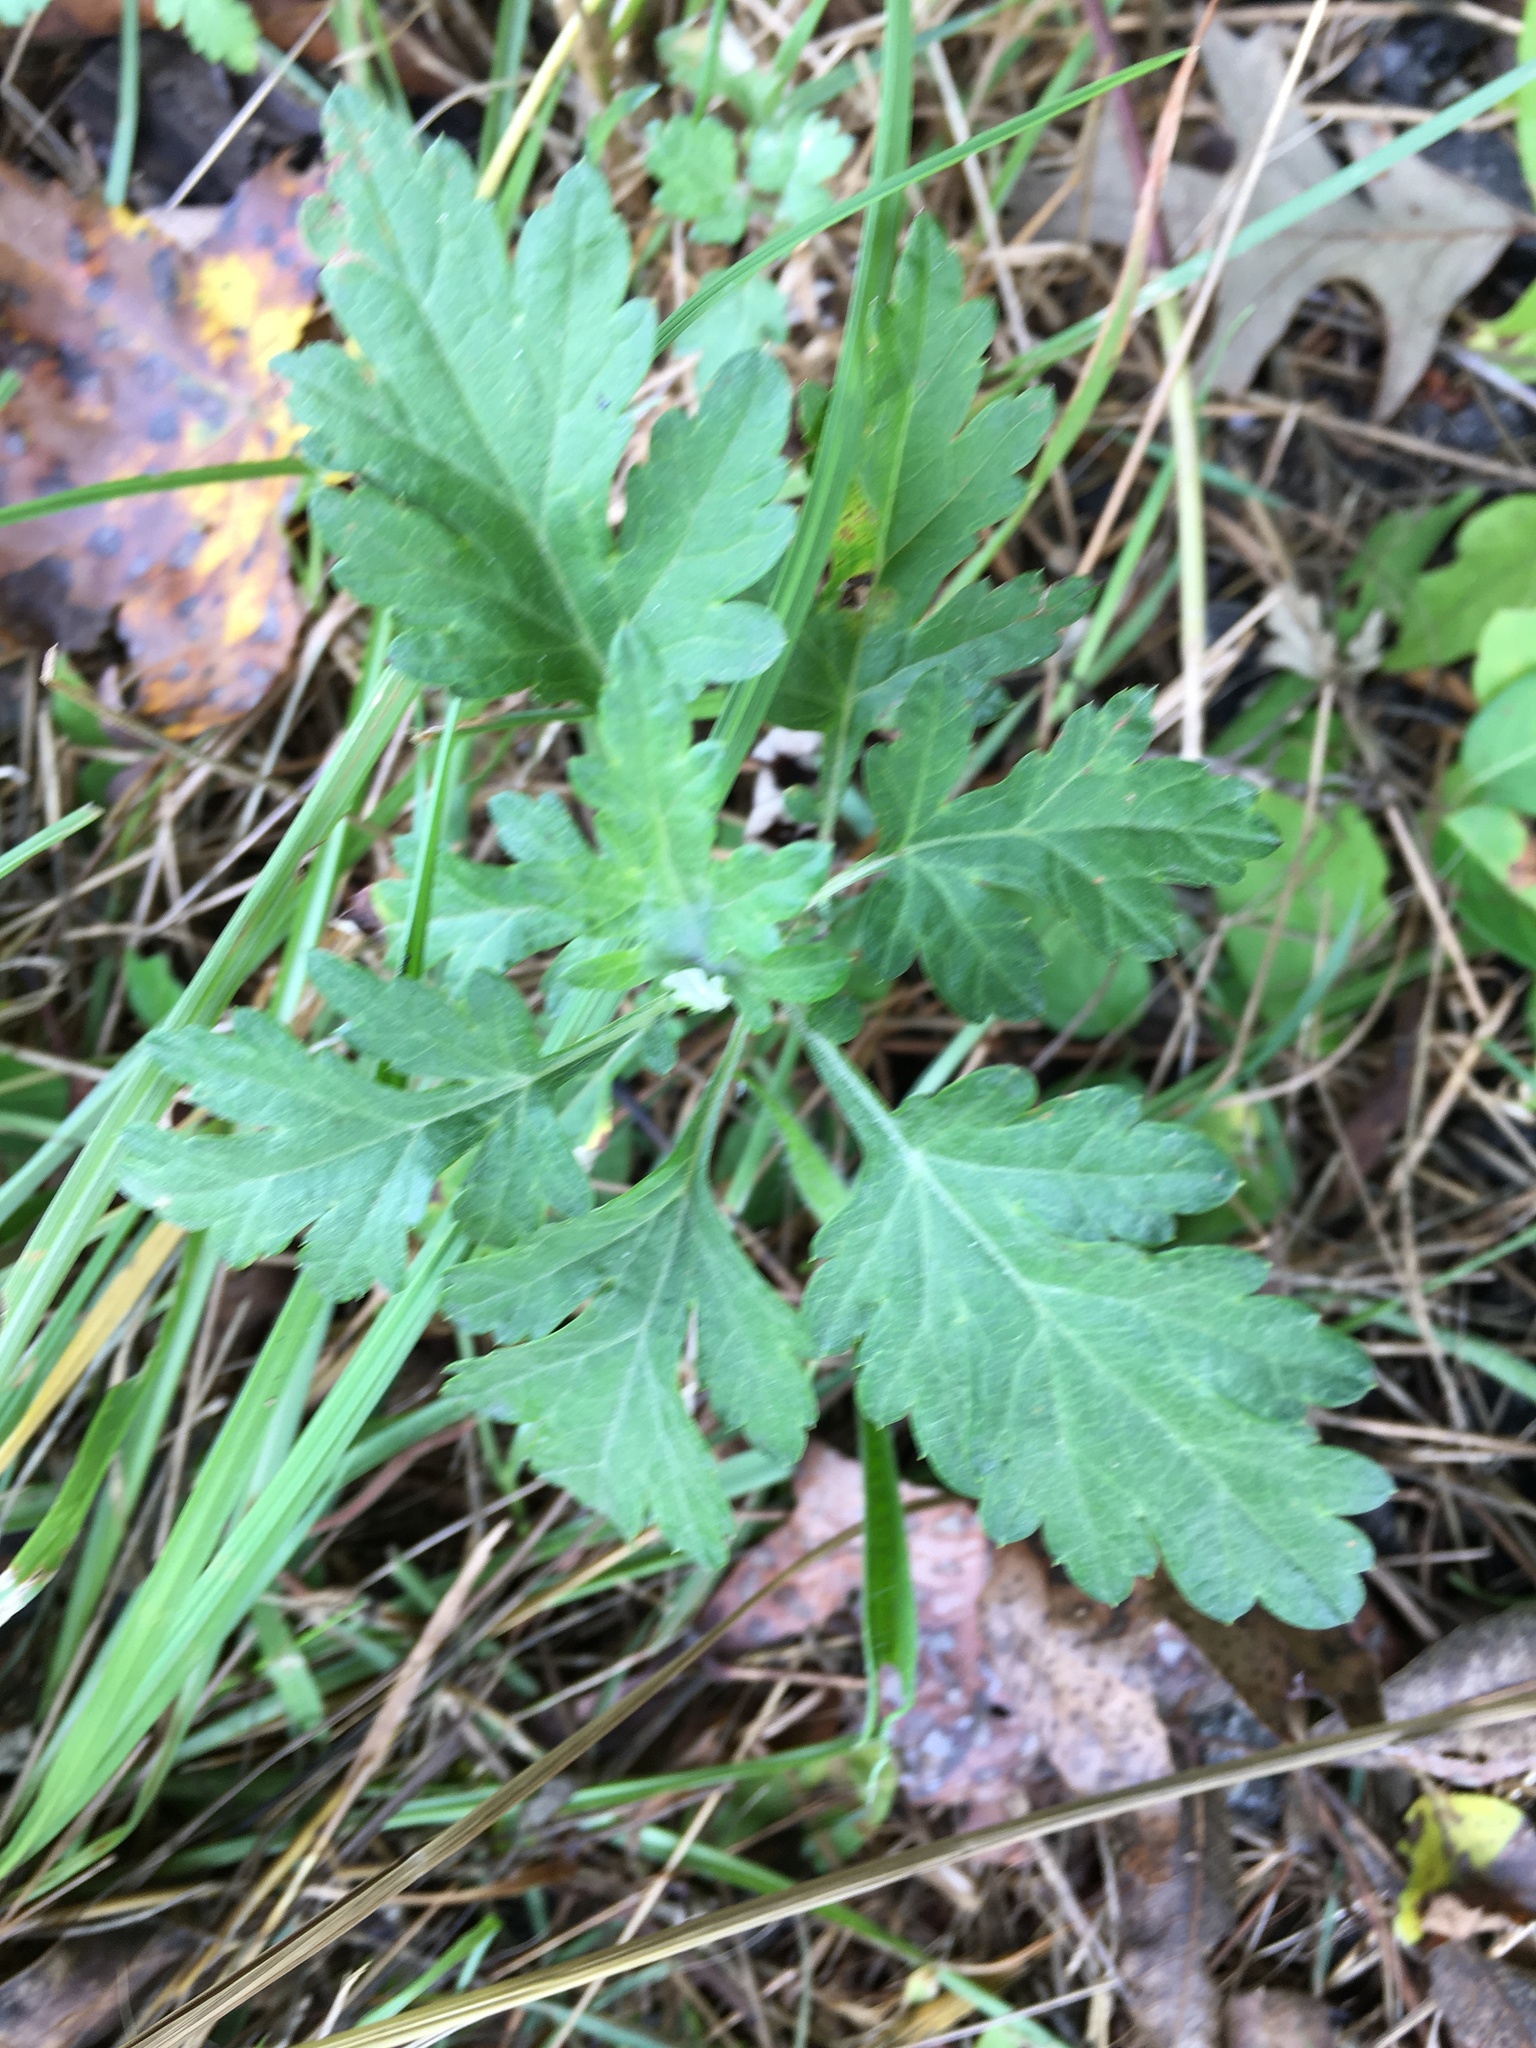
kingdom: Plantae
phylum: Tracheophyta
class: Magnoliopsida
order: Asterales
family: Asteraceae
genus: Artemisia
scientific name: Artemisia vulgaris
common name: Mugwort
